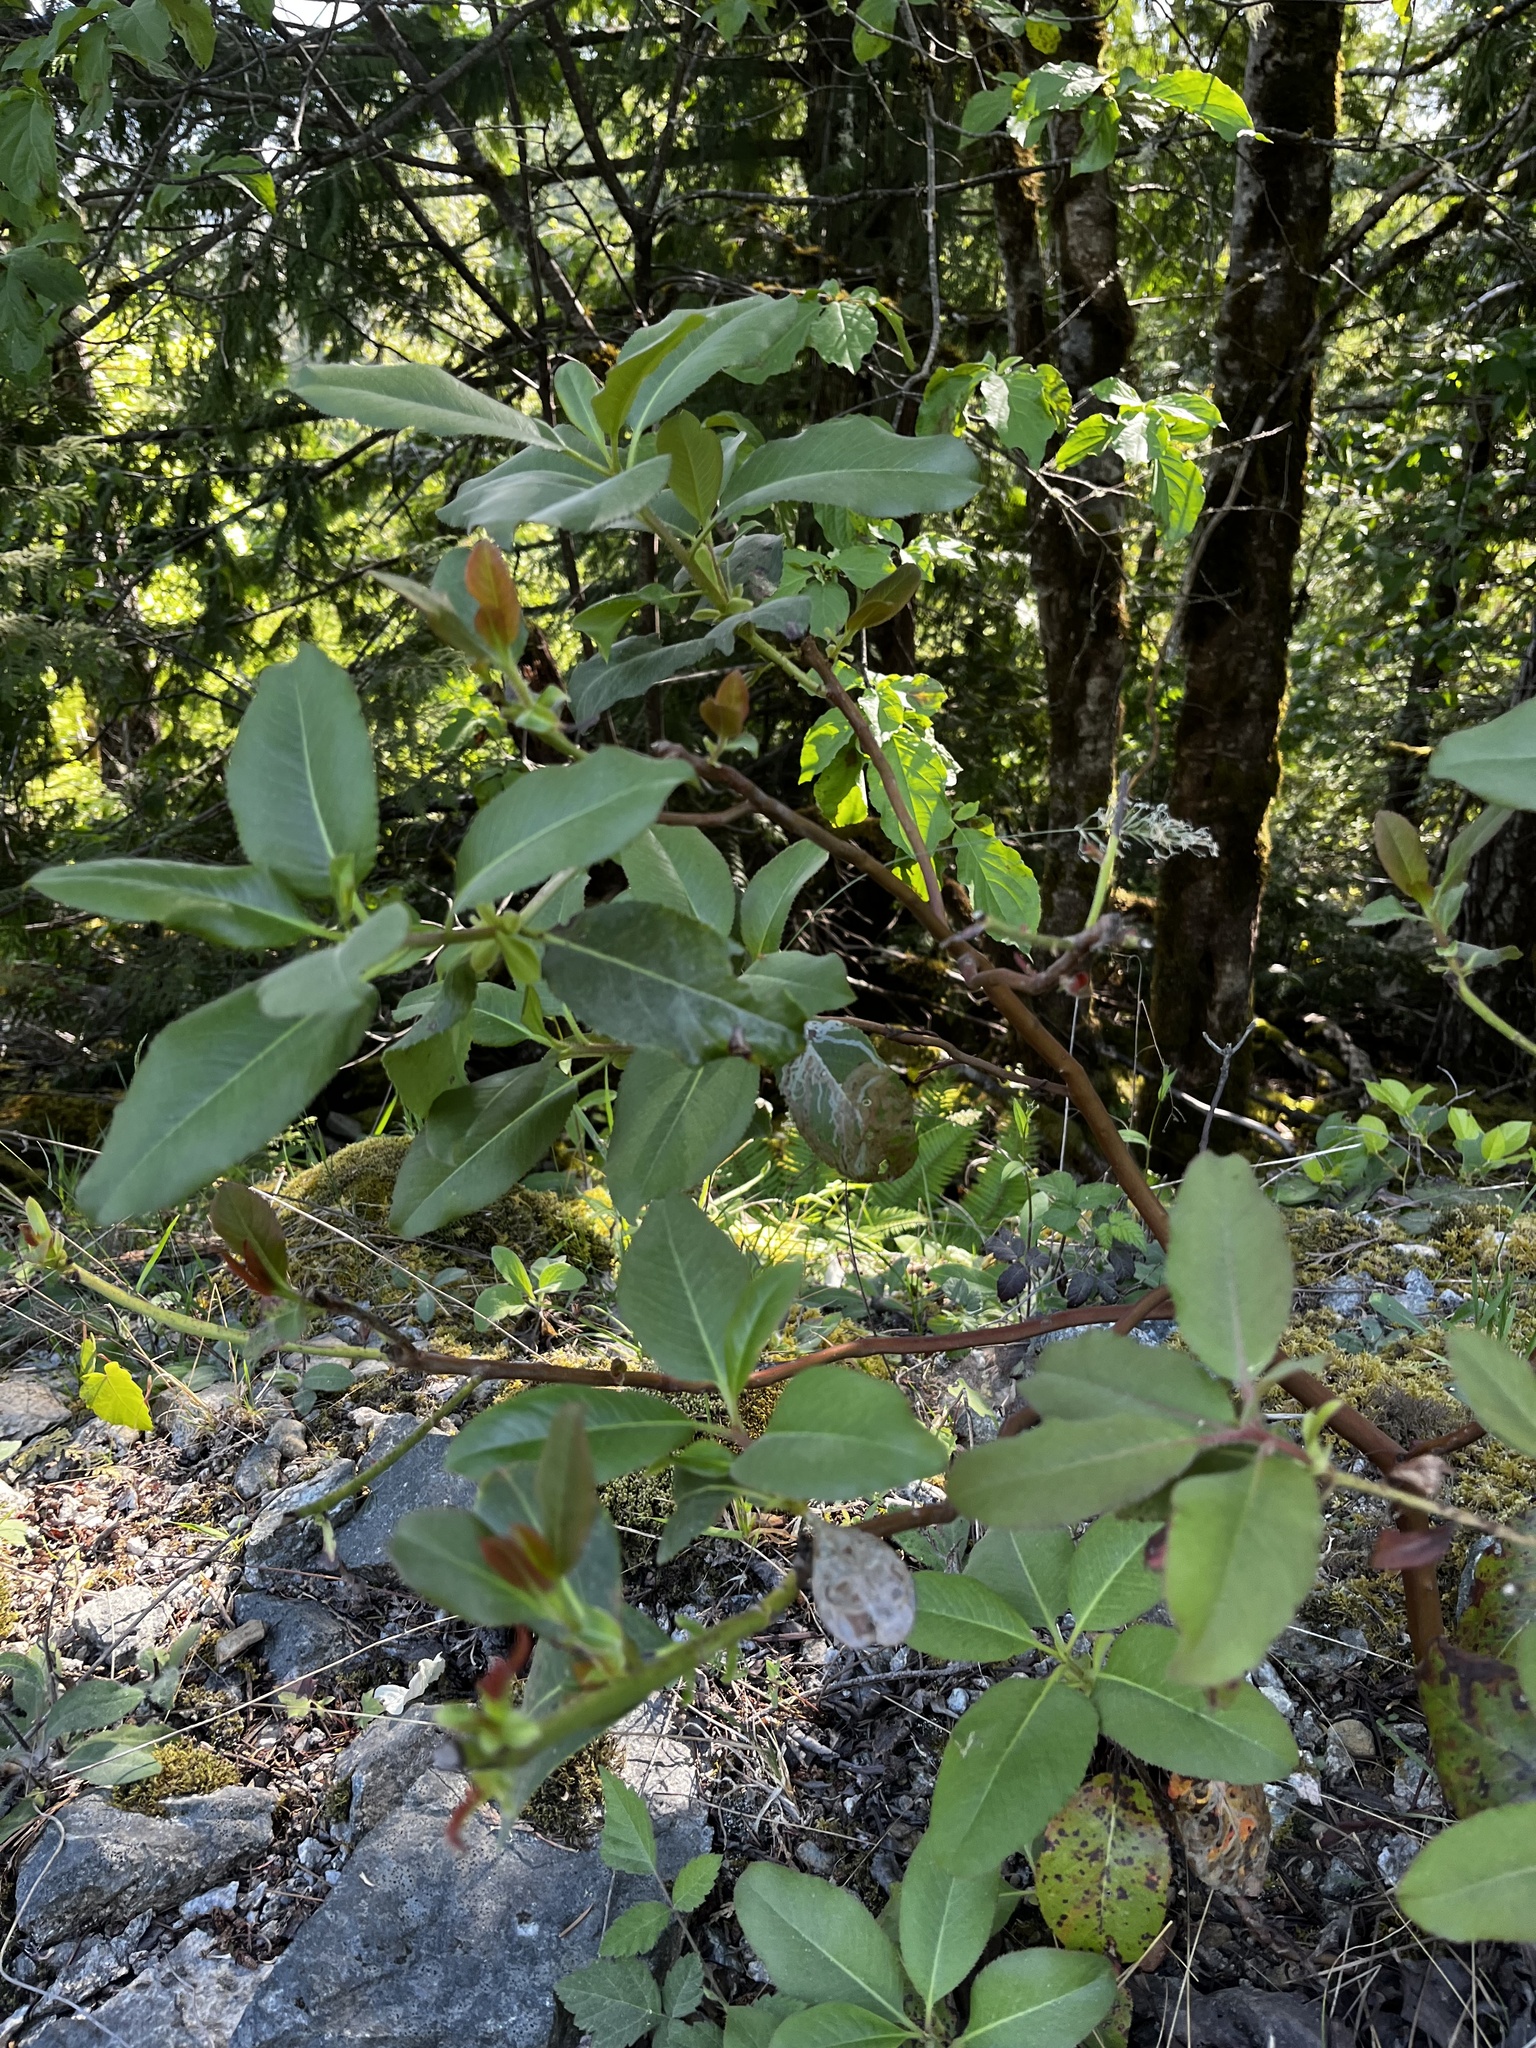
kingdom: Plantae
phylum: Tracheophyta
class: Magnoliopsida
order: Ericales
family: Ericaceae
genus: Arbutus
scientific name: Arbutus menziesii
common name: Pacific madrone
